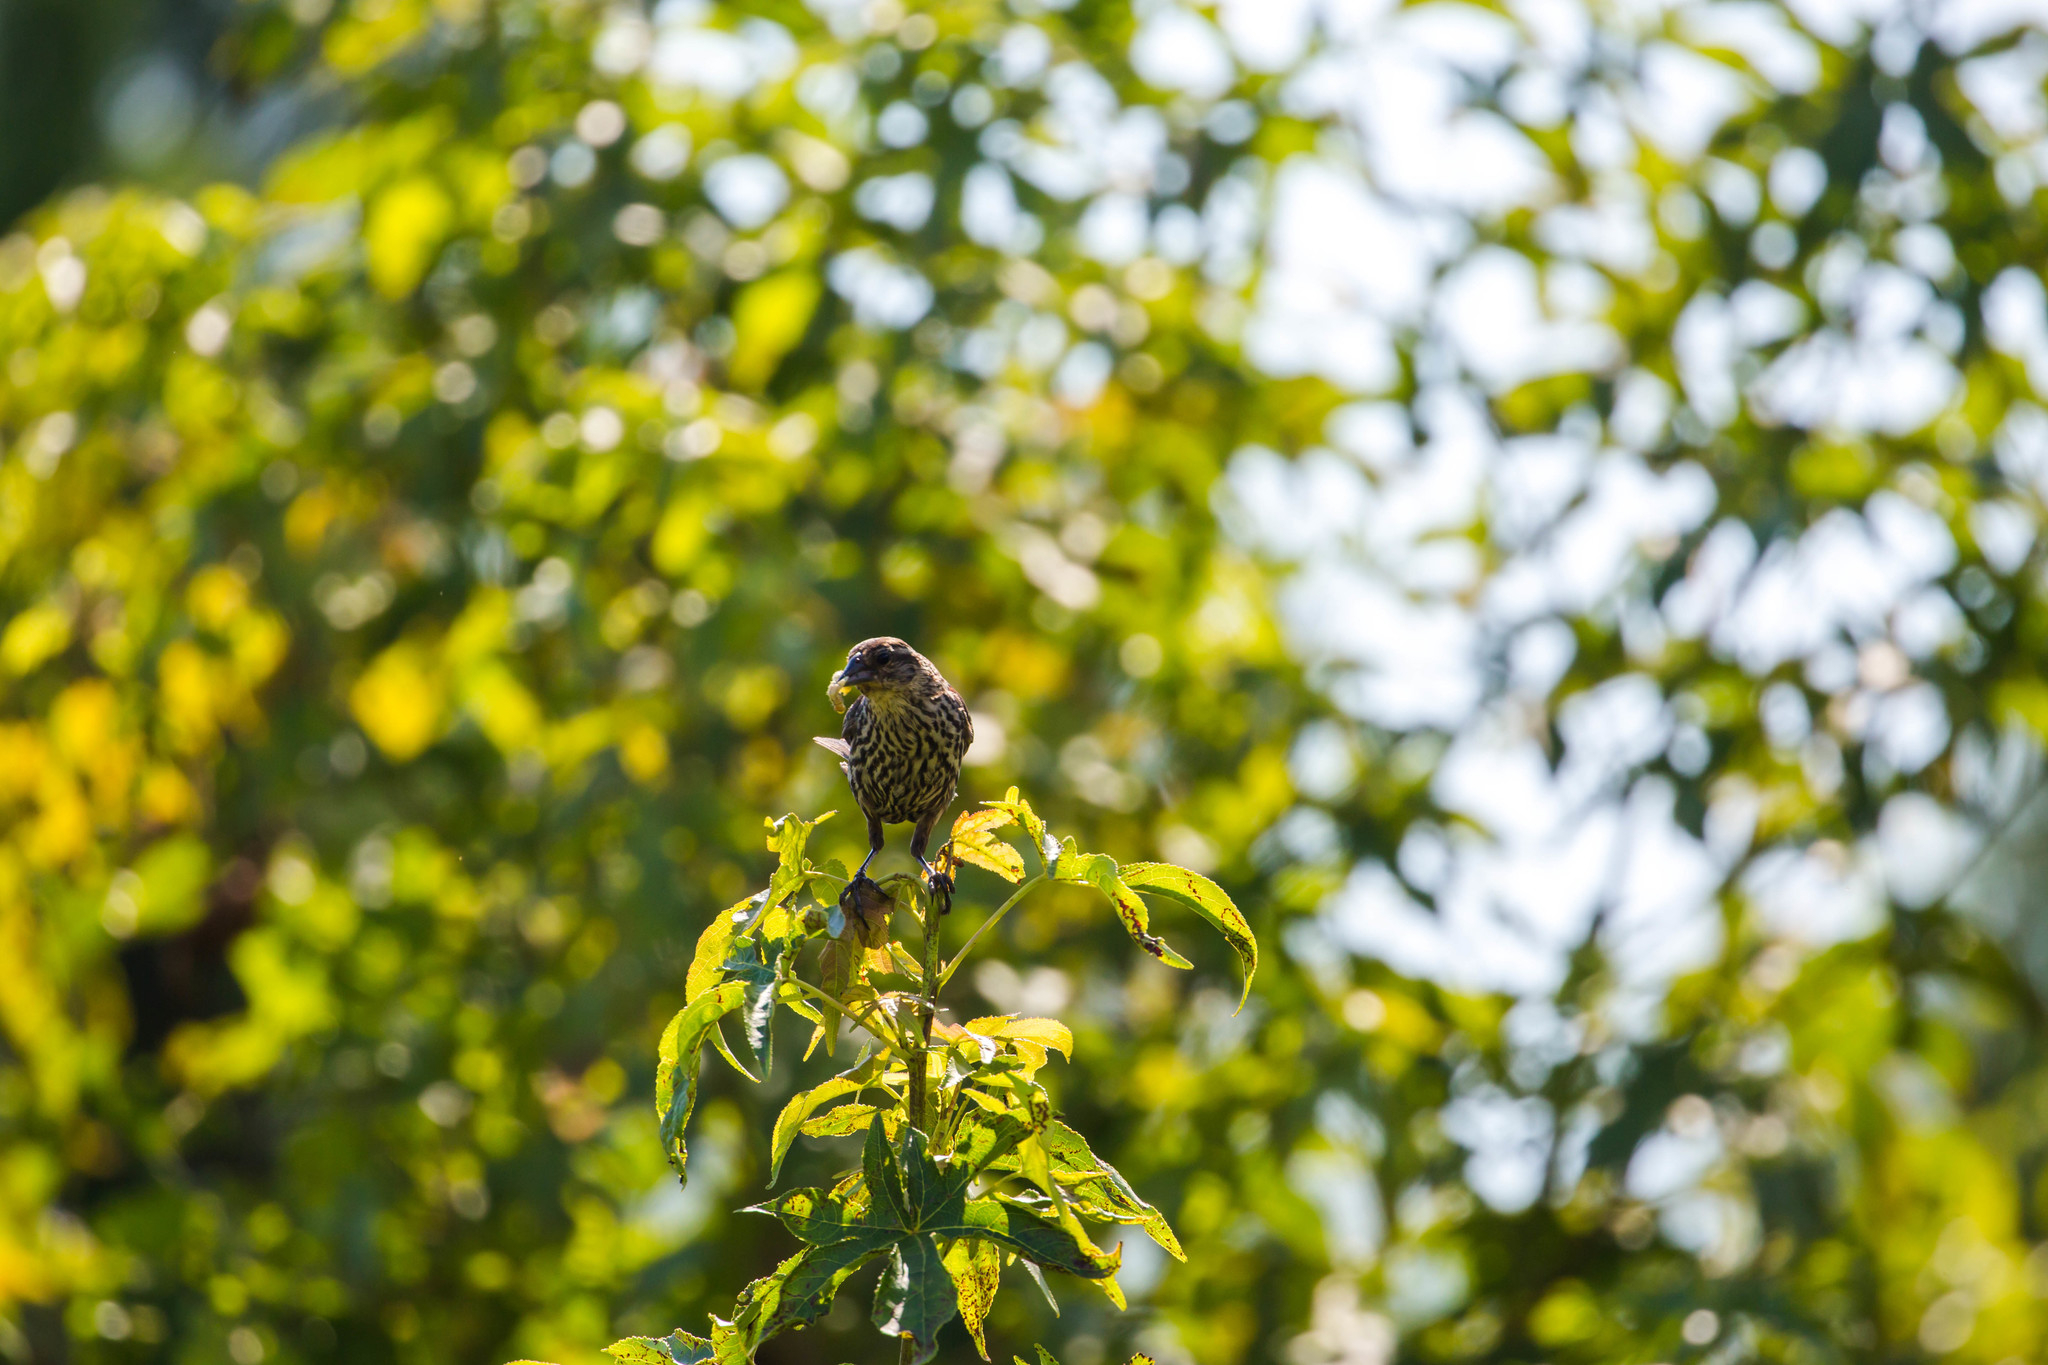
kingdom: Animalia
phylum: Chordata
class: Aves
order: Passeriformes
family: Icteridae
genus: Agelaius
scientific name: Agelaius phoeniceus
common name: Red-winged blackbird
